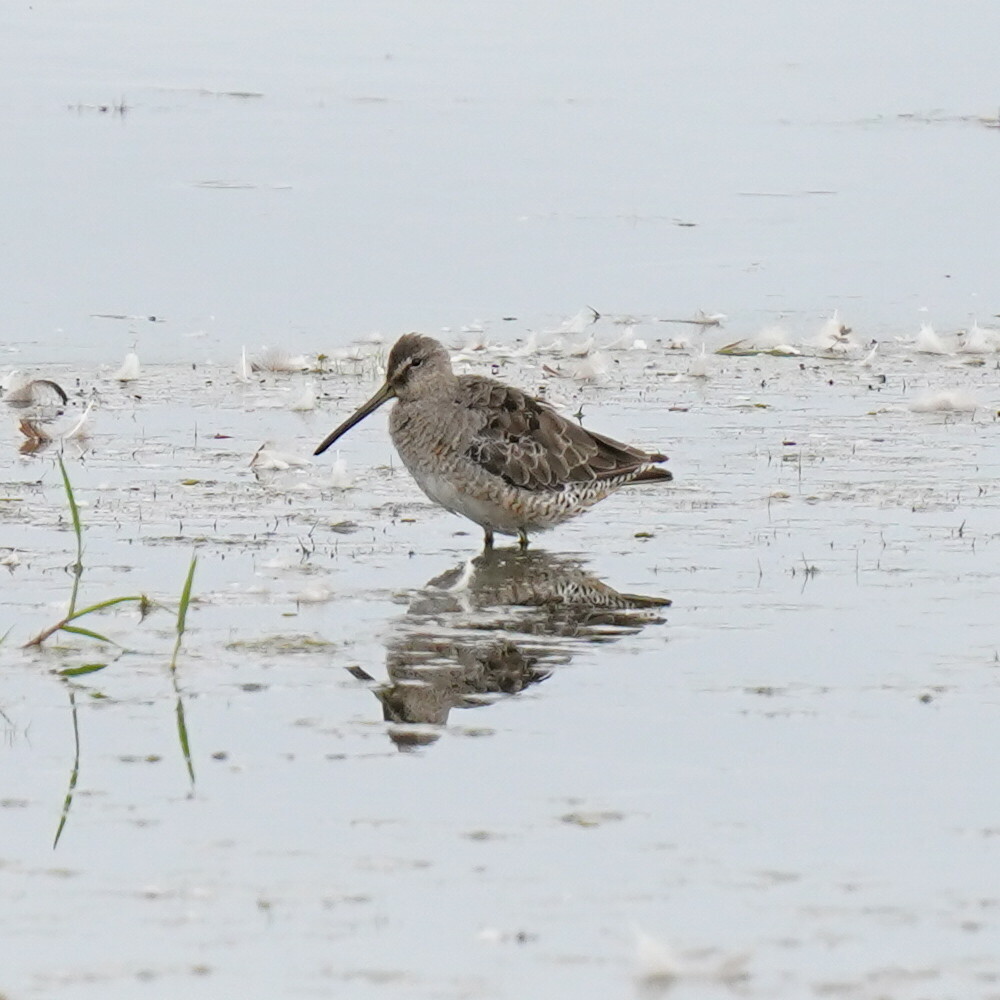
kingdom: Animalia
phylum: Chordata
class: Aves
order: Charadriiformes
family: Scolopacidae
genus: Limnodromus
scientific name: Limnodromus scolopaceus
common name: Long-billed dowitcher
